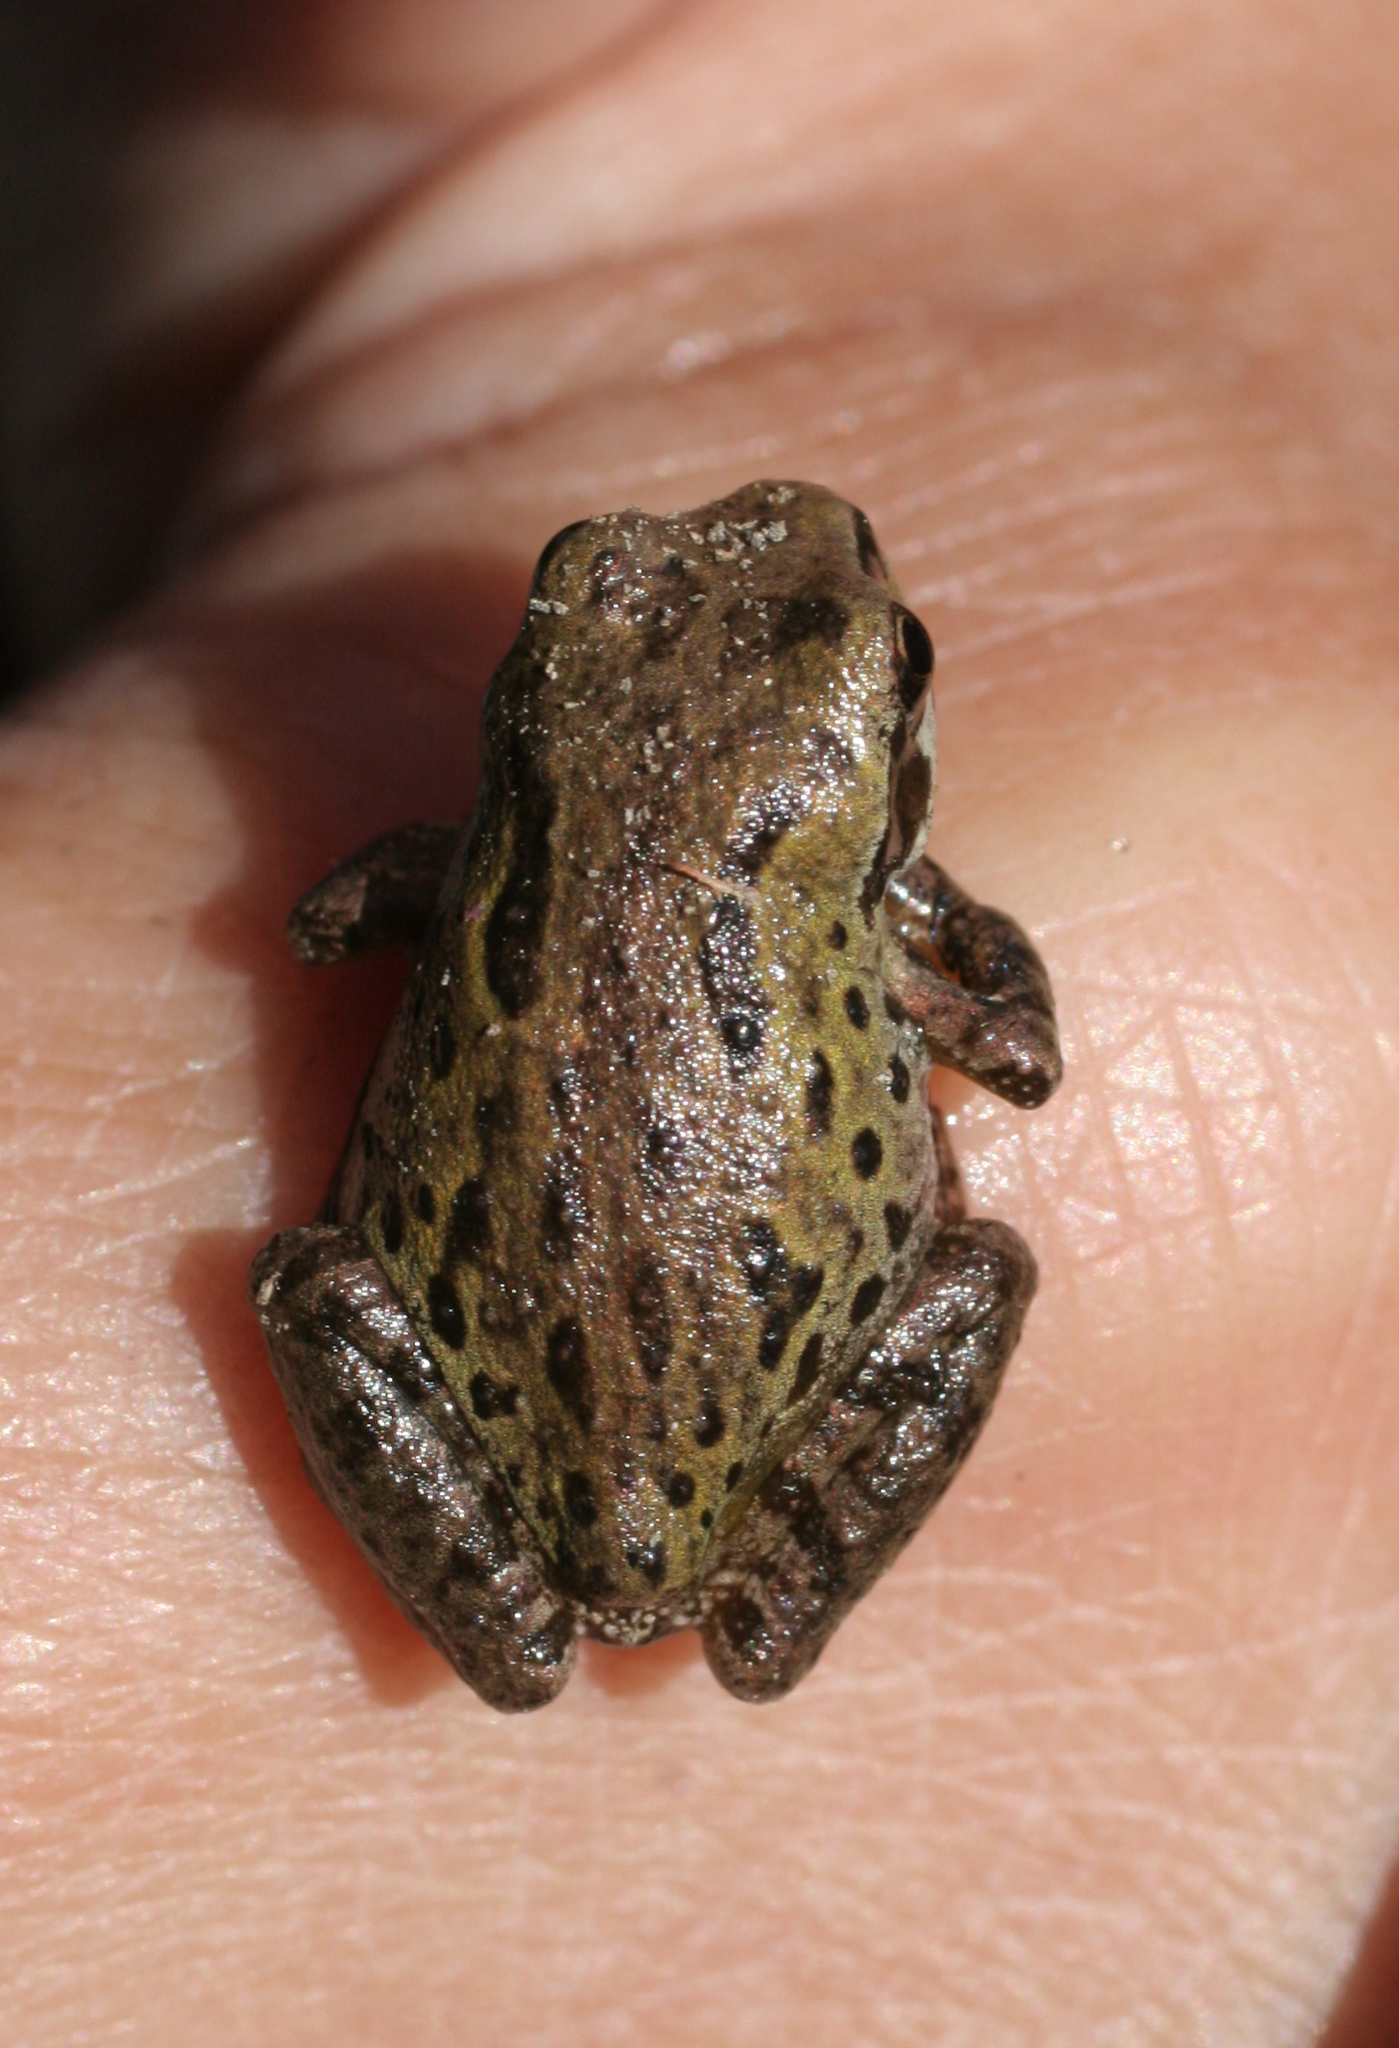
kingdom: Animalia
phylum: Chordata
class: Amphibia
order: Anura
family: Hylidae
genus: Pseudacris
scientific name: Pseudacris regilla
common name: Pacific chorus frog
